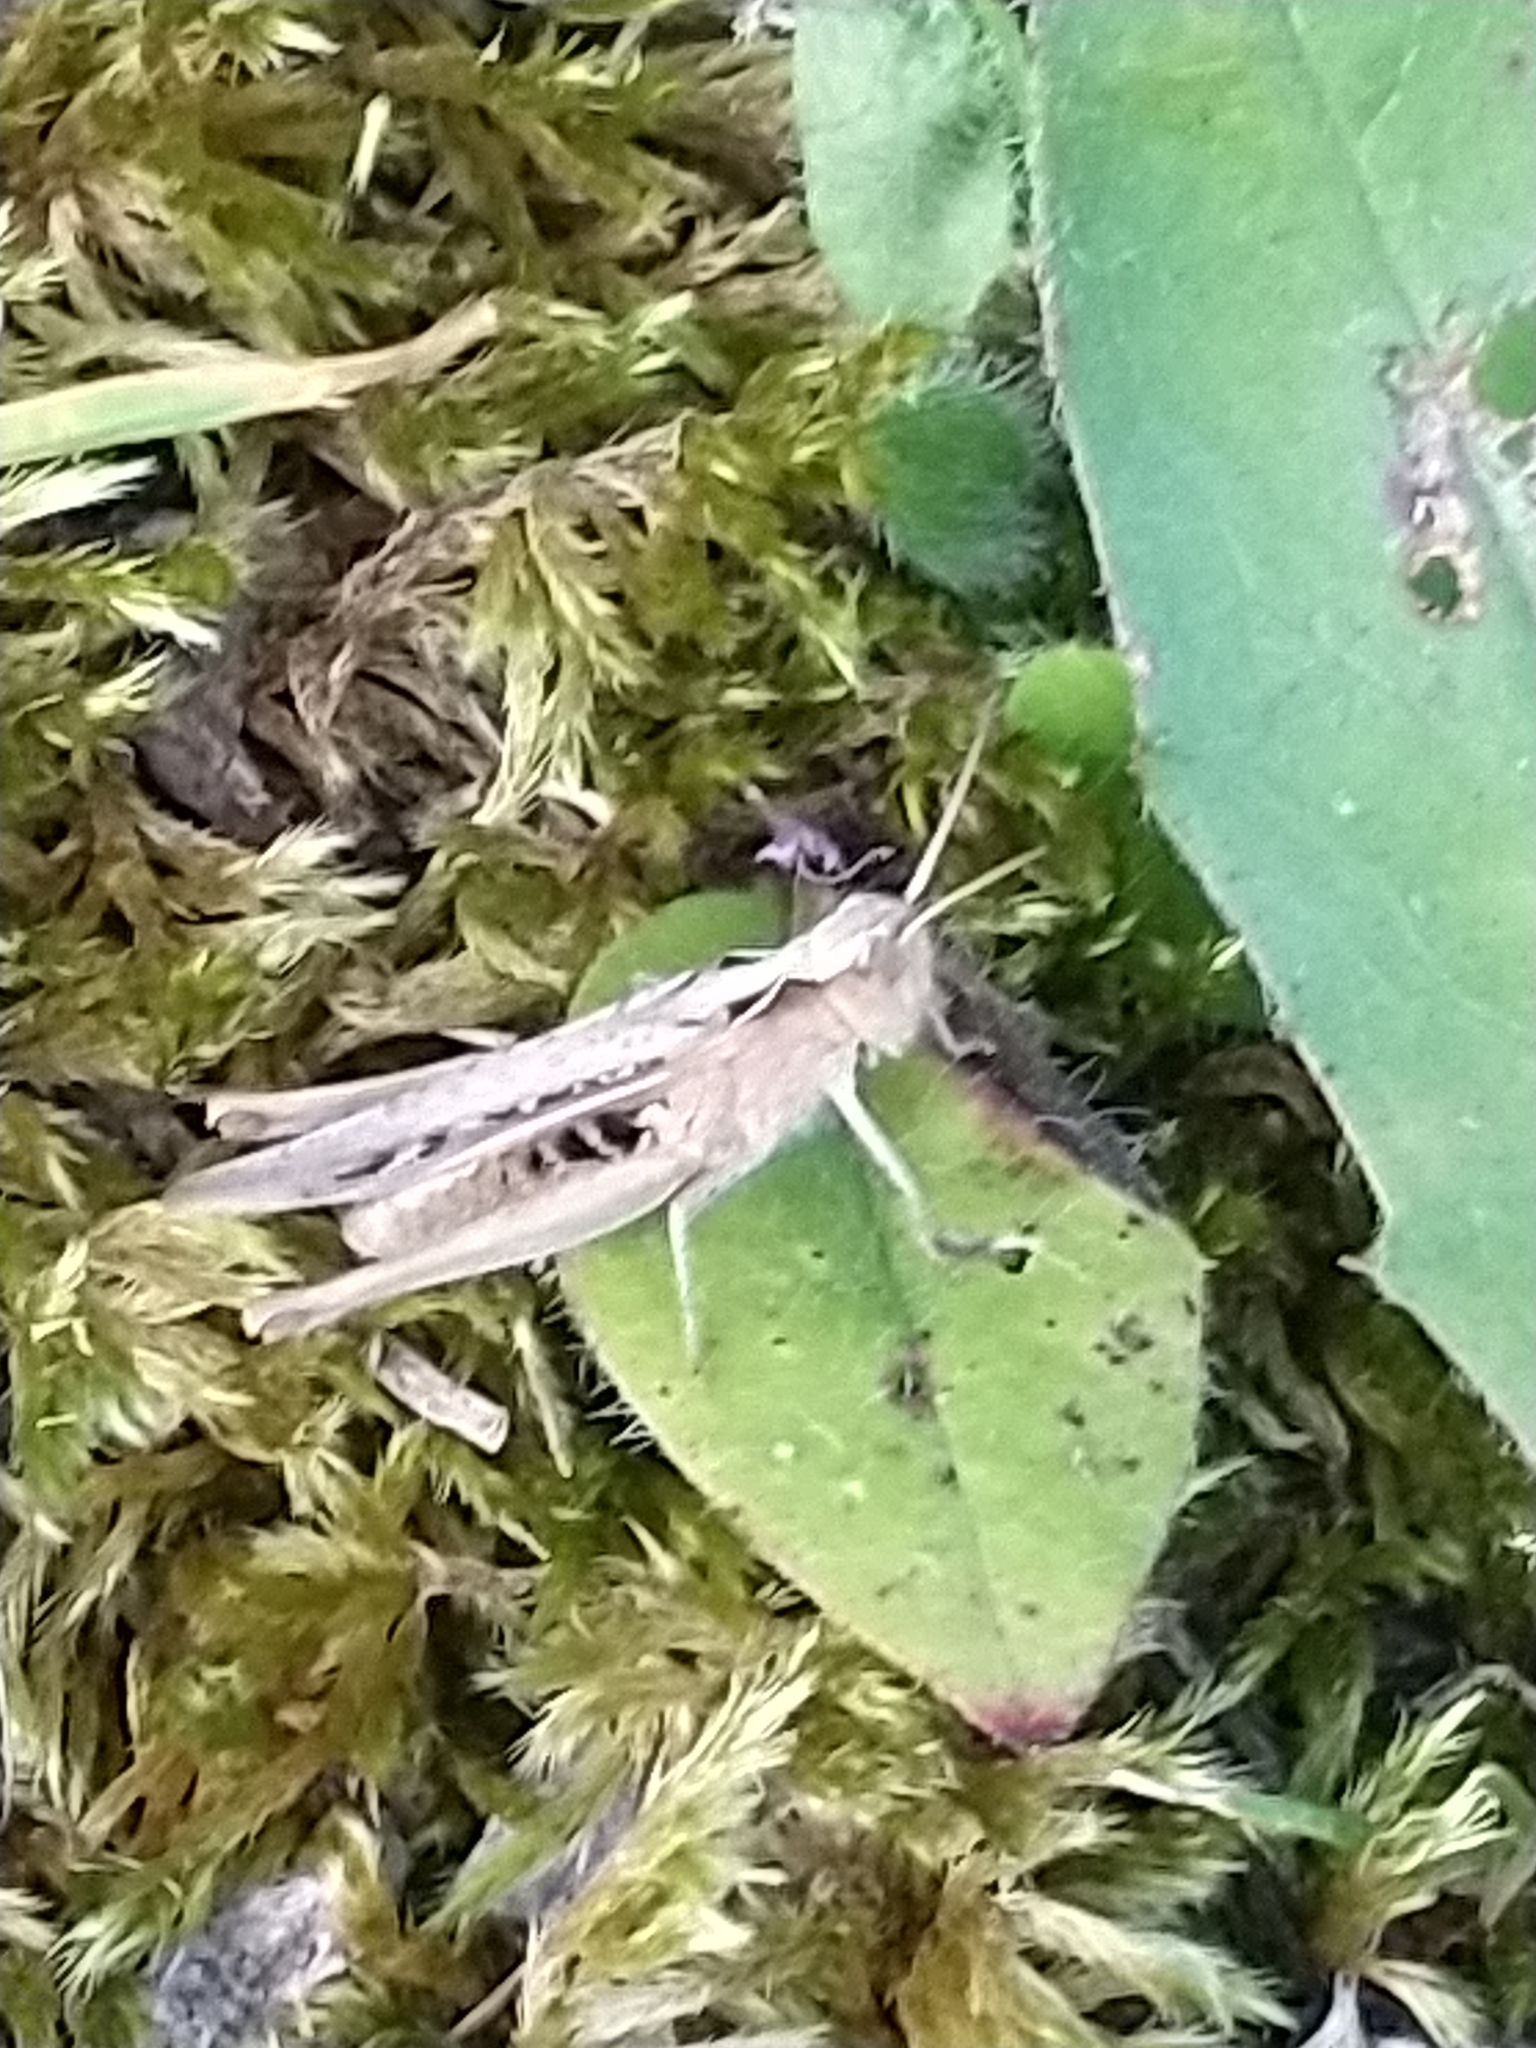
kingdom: Animalia
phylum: Arthropoda
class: Insecta
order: Orthoptera
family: Acrididae
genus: Chorthippus
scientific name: Chorthippus brunneus
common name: Field grasshopper
